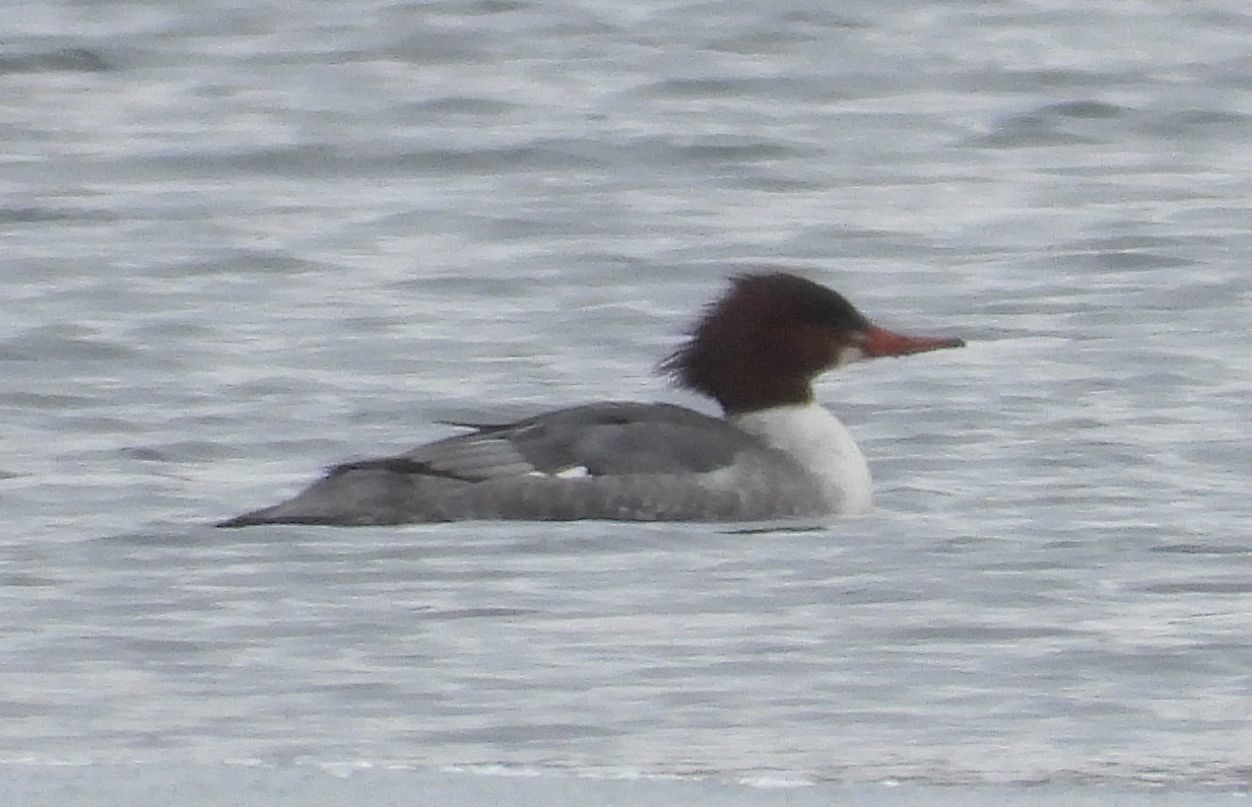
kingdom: Animalia
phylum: Chordata
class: Aves
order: Anseriformes
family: Anatidae
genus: Mergus
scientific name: Mergus merganser
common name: Common merganser
